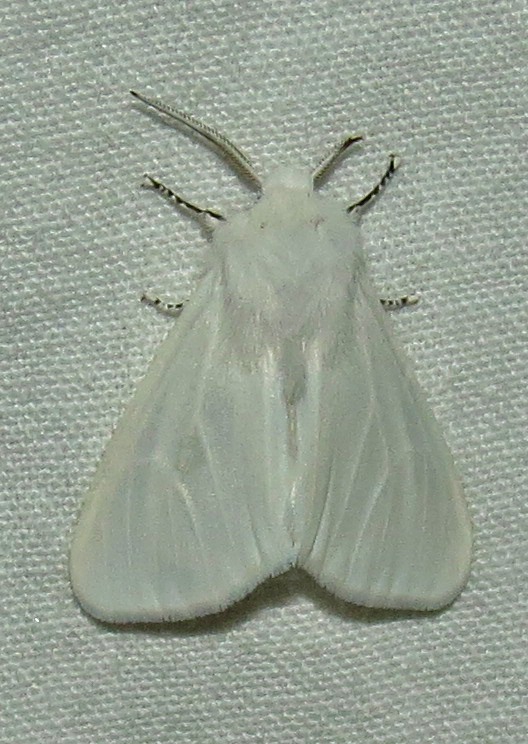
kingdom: Animalia
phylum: Arthropoda
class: Insecta
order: Lepidoptera
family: Erebidae
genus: Hyphantria
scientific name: Hyphantria cunea
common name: American white moth
